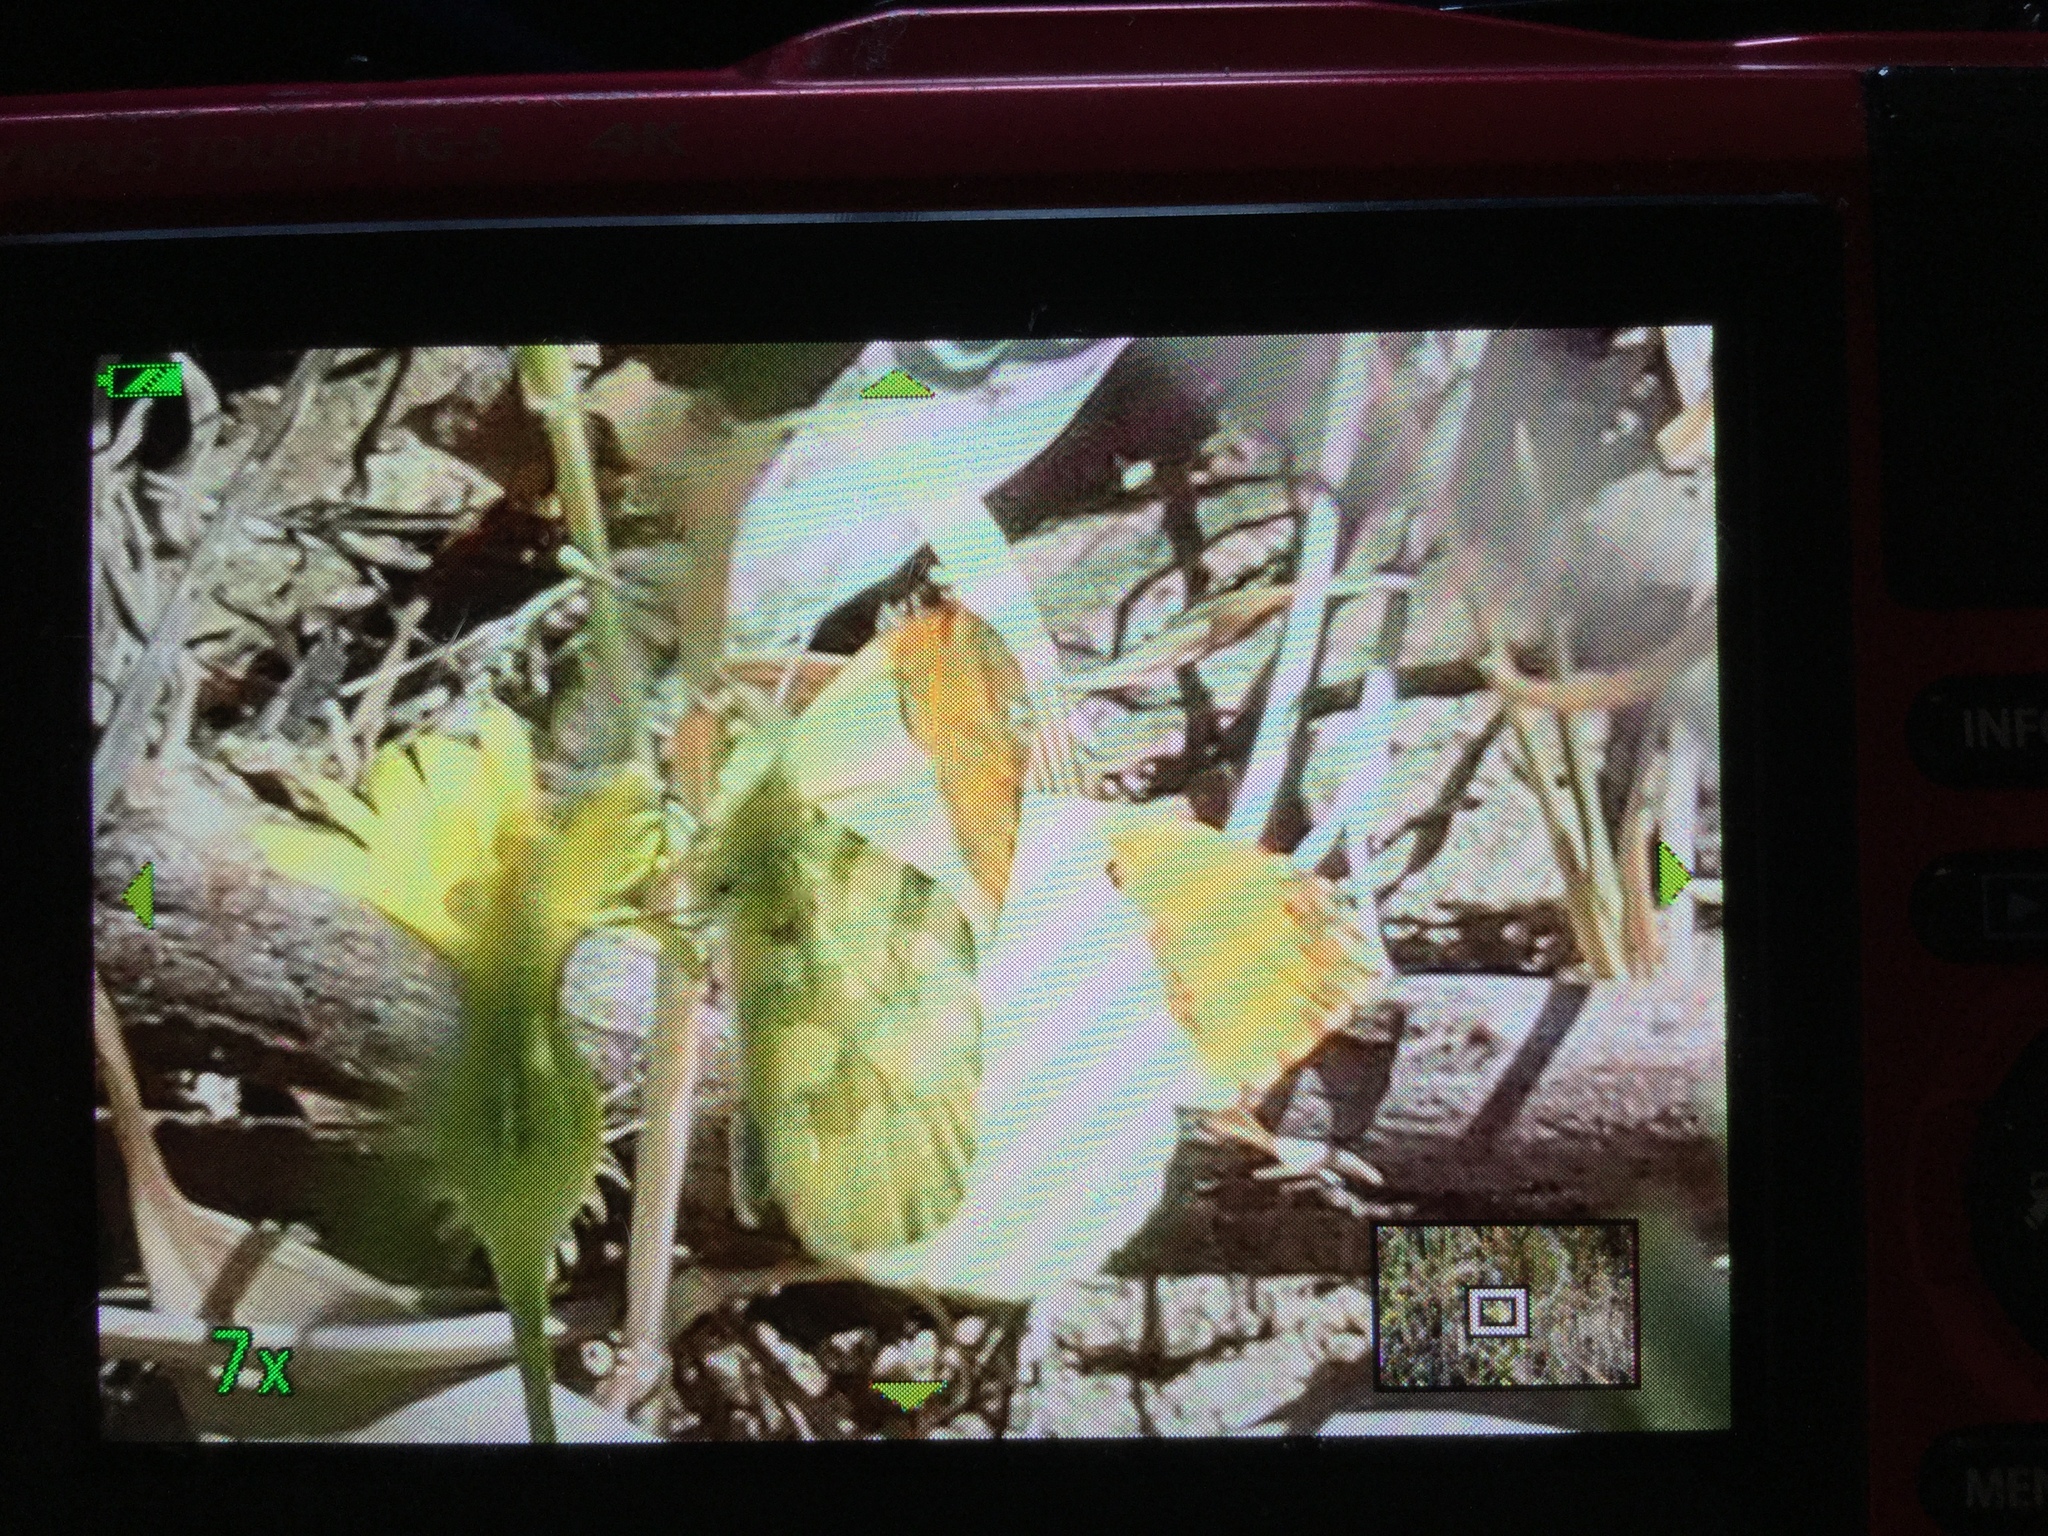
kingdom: Animalia
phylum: Arthropoda
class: Insecta
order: Lepidoptera
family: Pieridae
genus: Anthocharis
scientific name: Anthocharis euphenoides
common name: Provence orange-tip
